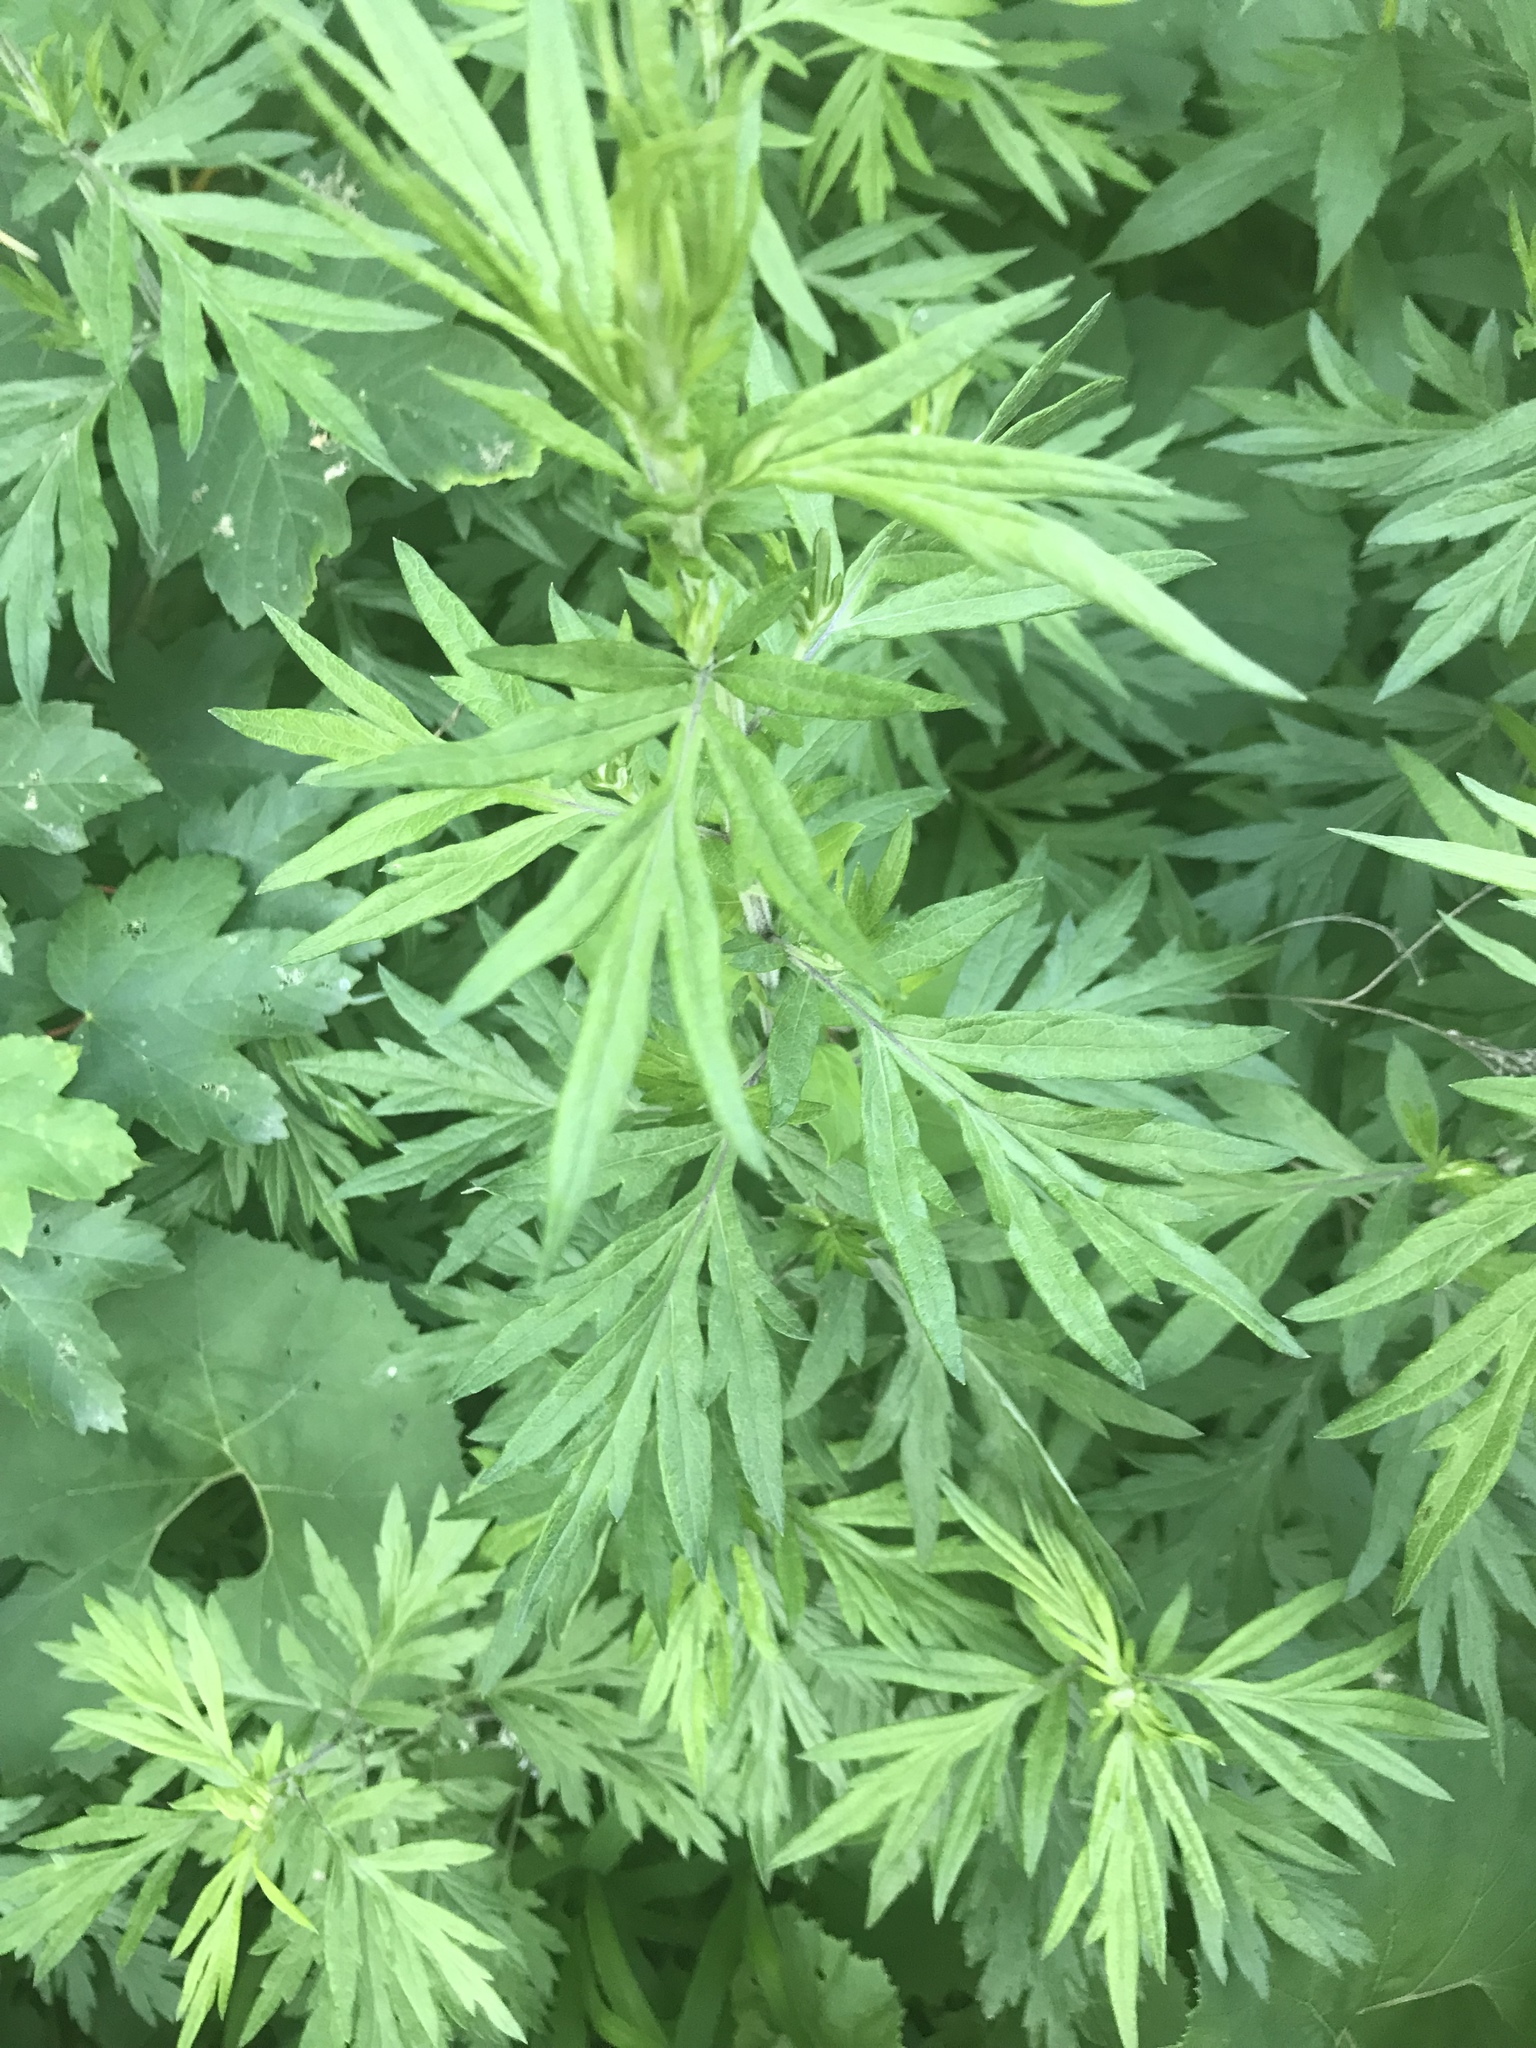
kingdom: Plantae
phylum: Tracheophyta
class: Magnoliopsida
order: Asterales
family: Asteraceae
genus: Artemisia
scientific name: Artemisia vulgaris
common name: Mugwort
